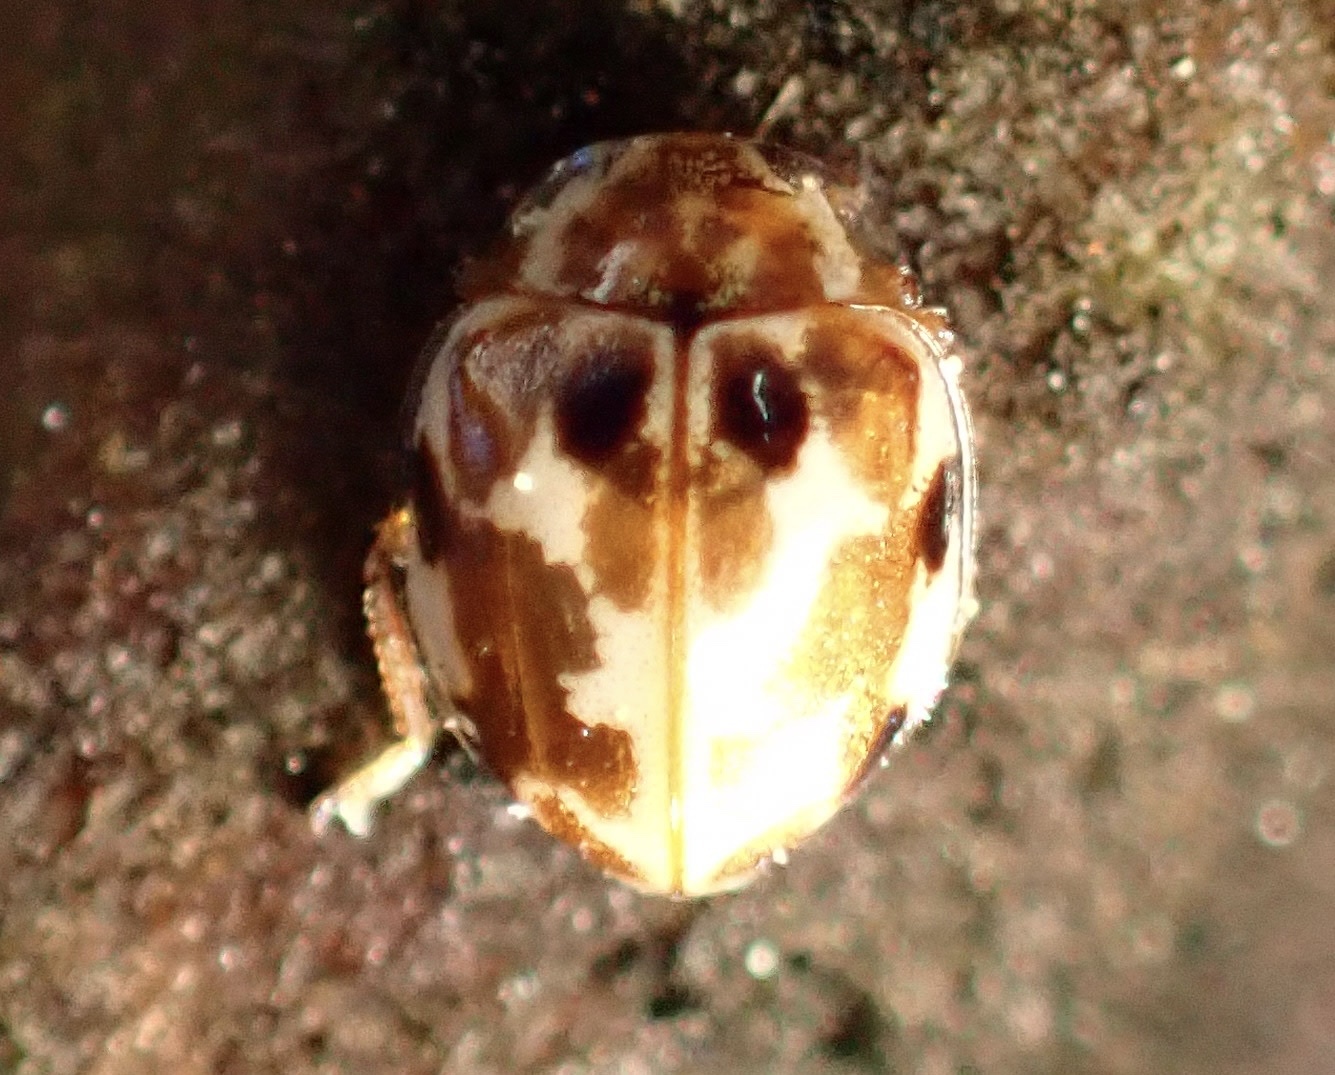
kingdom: Animalia
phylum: Arthropoda
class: Insecta
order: Coleoptera
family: Coccinellidae
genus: Psyllobora
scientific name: Psyllobora vigintimaculata
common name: Ladybird beetle
